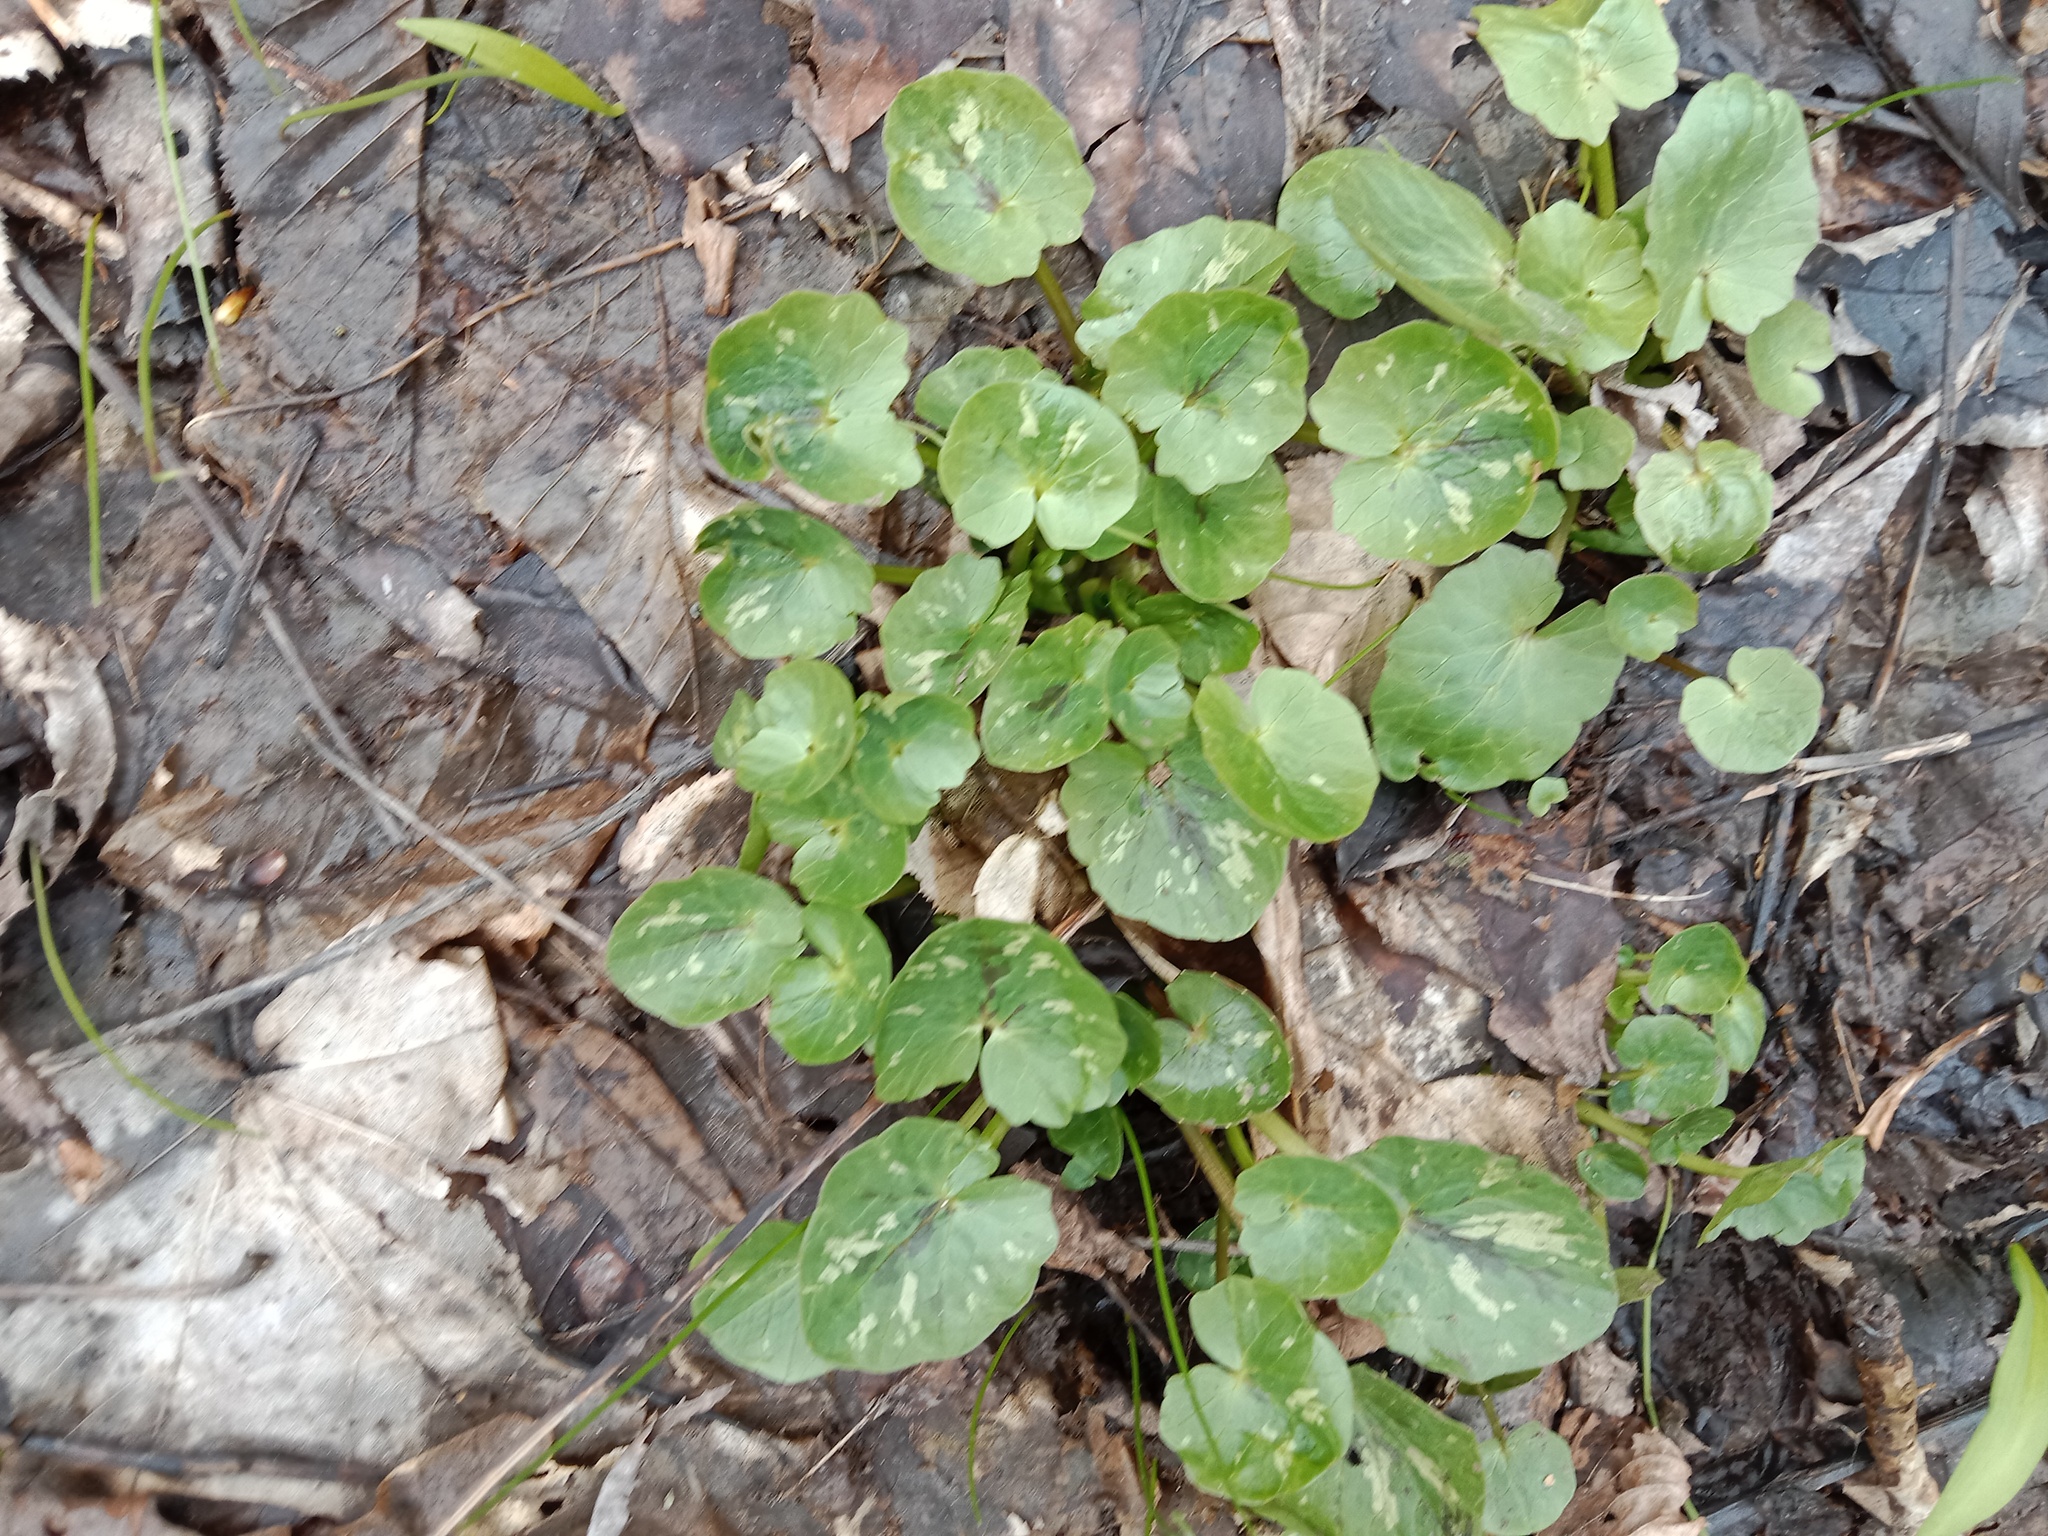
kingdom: Plantae
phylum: Tracheophyta
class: Magnoliopsida
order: Ranunculales
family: Ranunculaceae
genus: Ficaria
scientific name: Ficaria verna
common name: Lesser celandine
